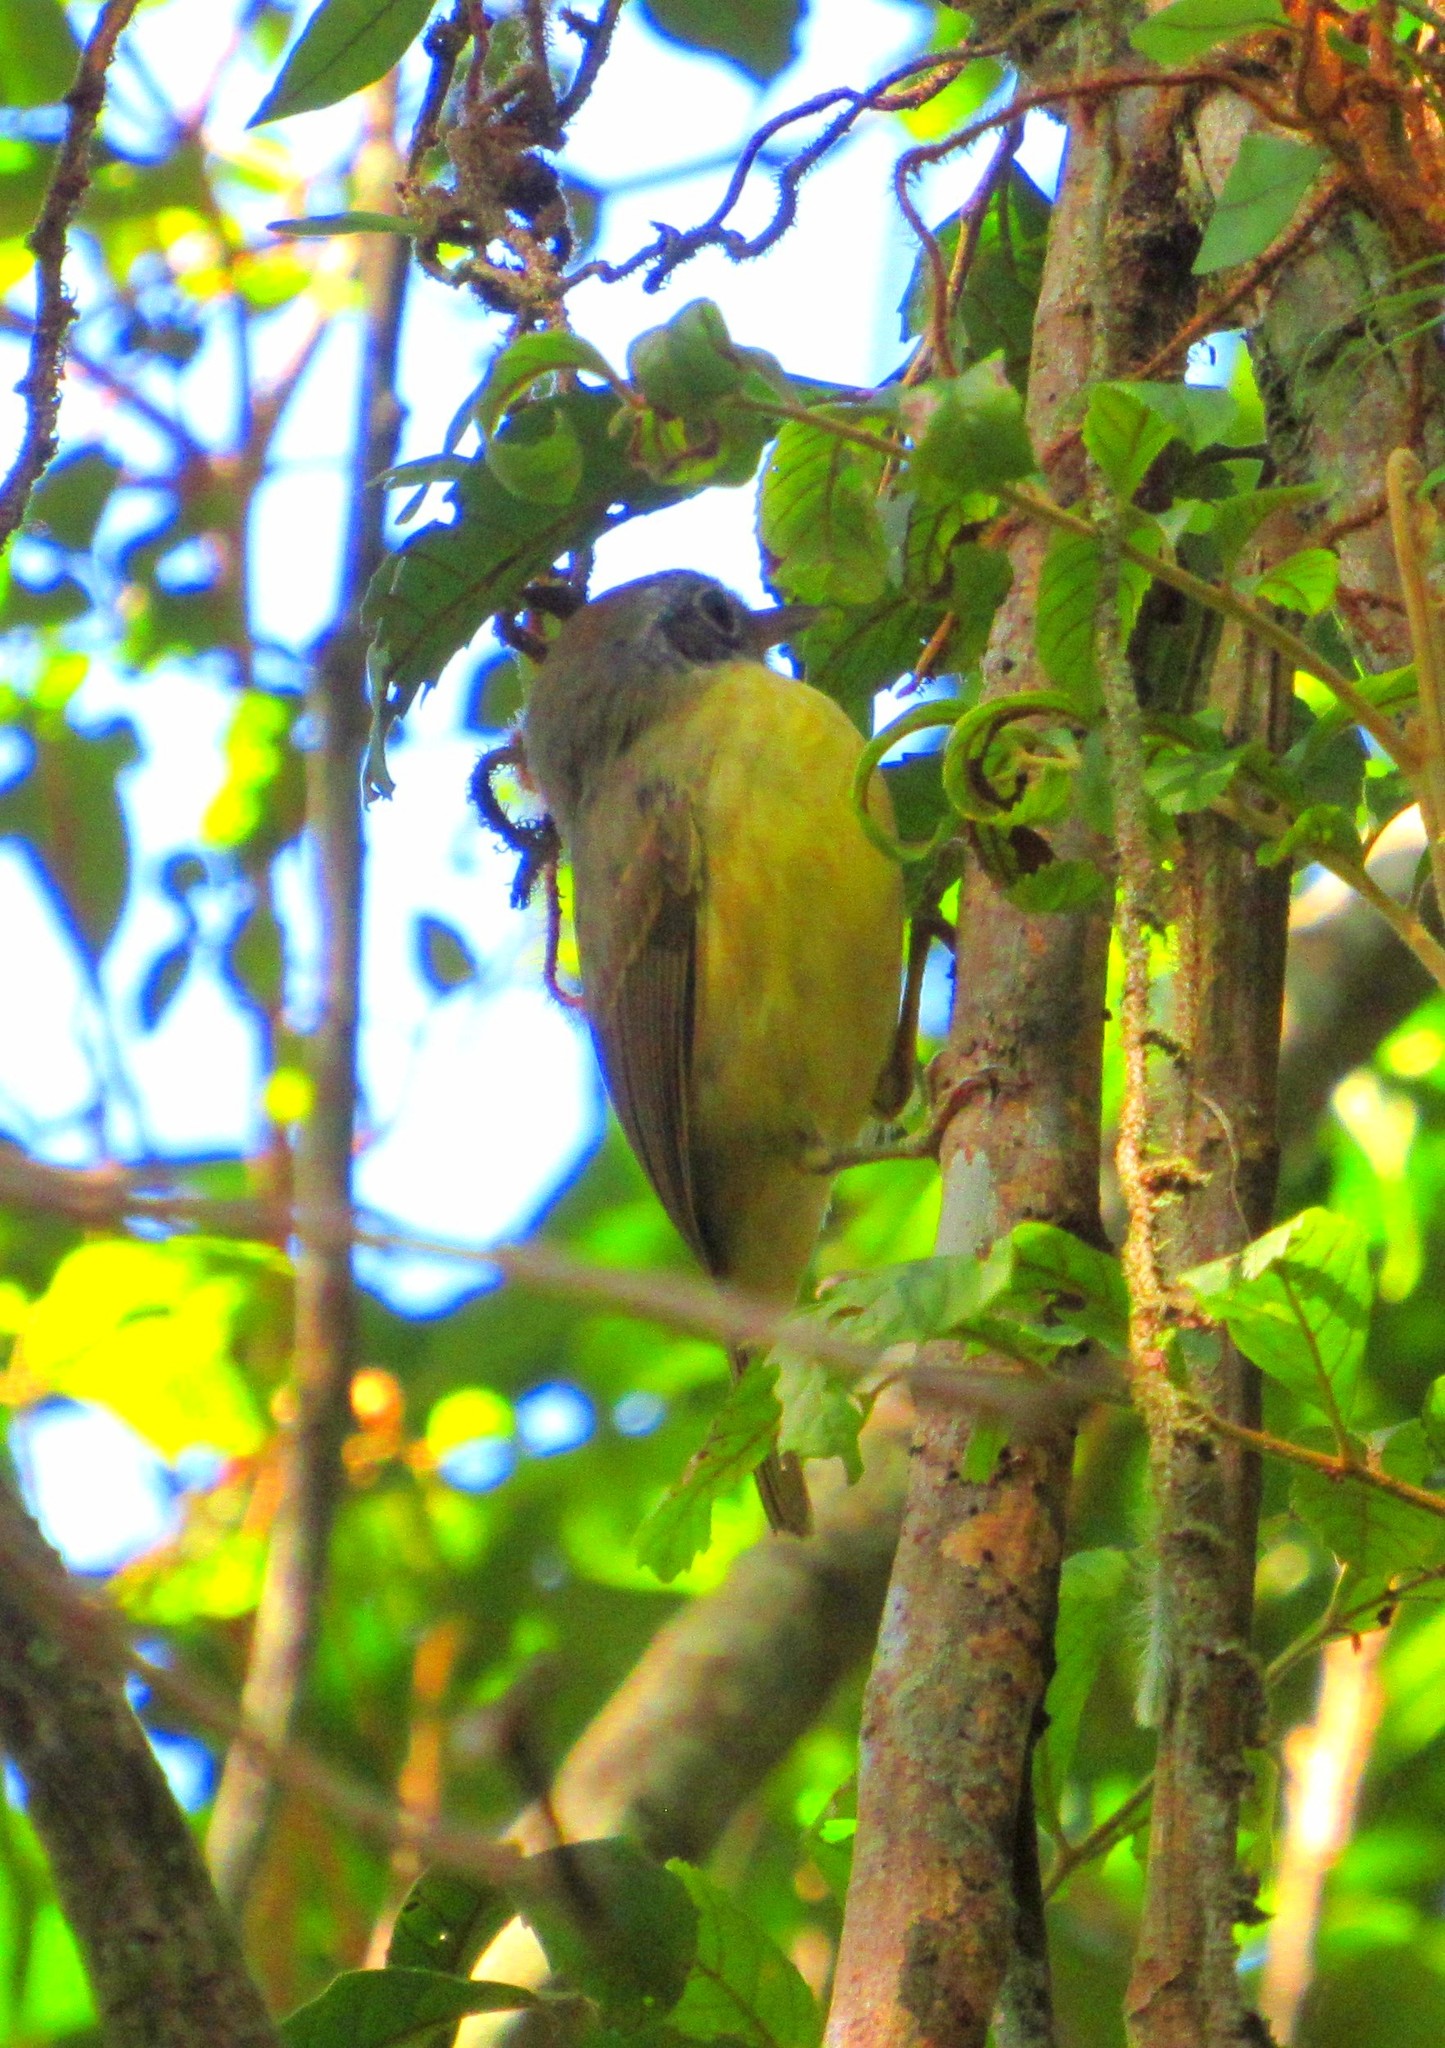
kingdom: Animalia
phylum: Chordata
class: Aves
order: Passeriformes
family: Thamnophilidae
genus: Dysithamnus
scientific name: Dysithamnus mentalis
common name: Plain antvireo
